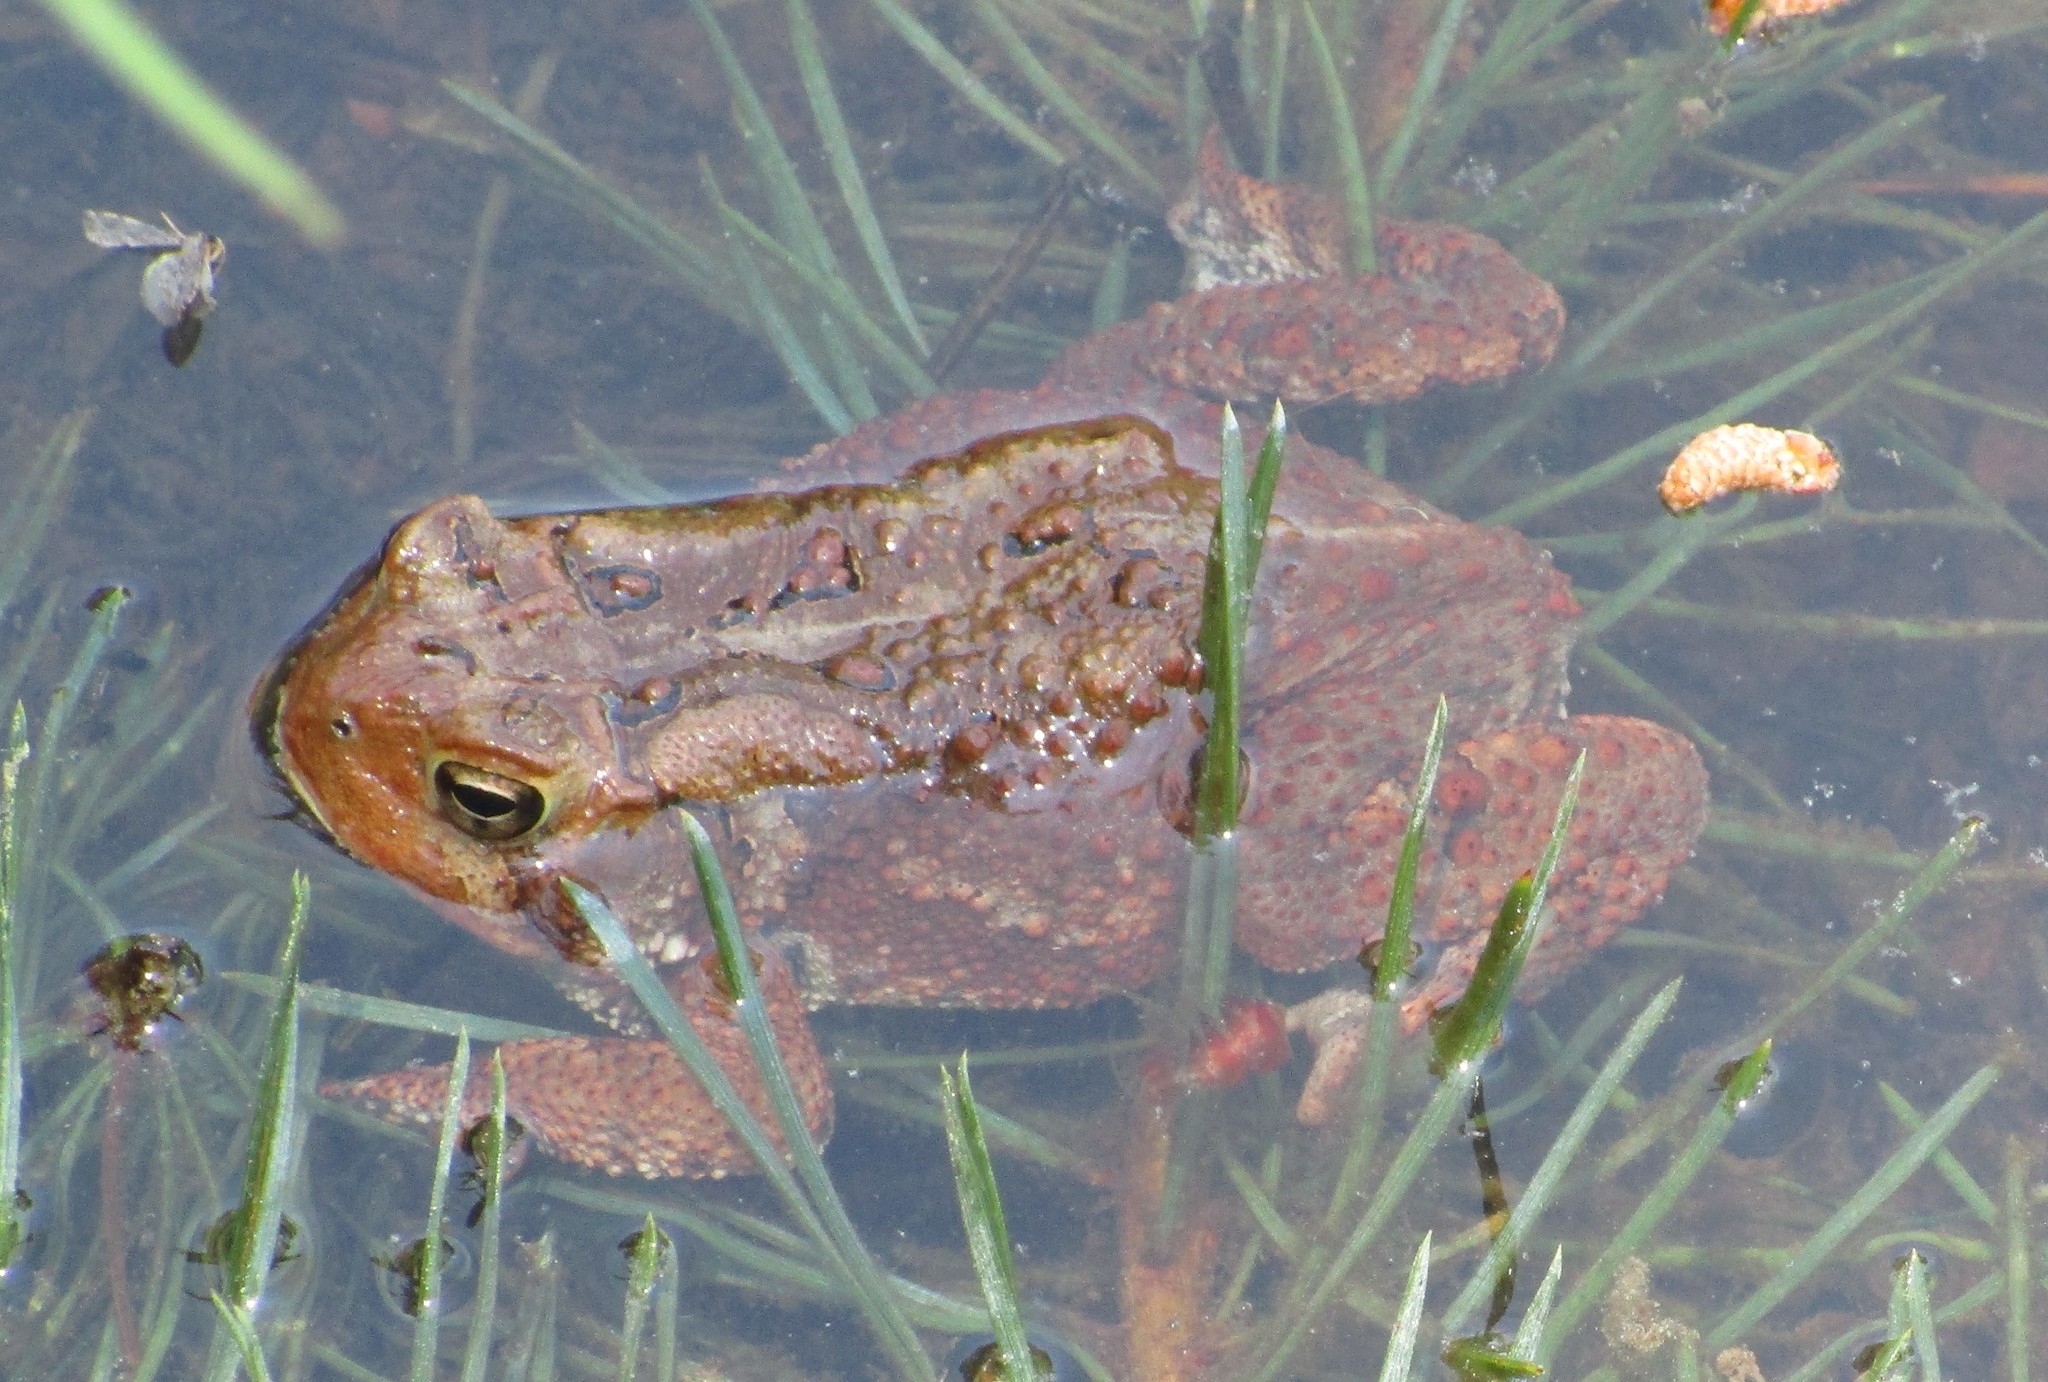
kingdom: Animalia
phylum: Chordata
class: Amphibia
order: Anura
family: Bufonidae
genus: Anaxyrus
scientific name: Anaxyrus americanus
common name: American toad
